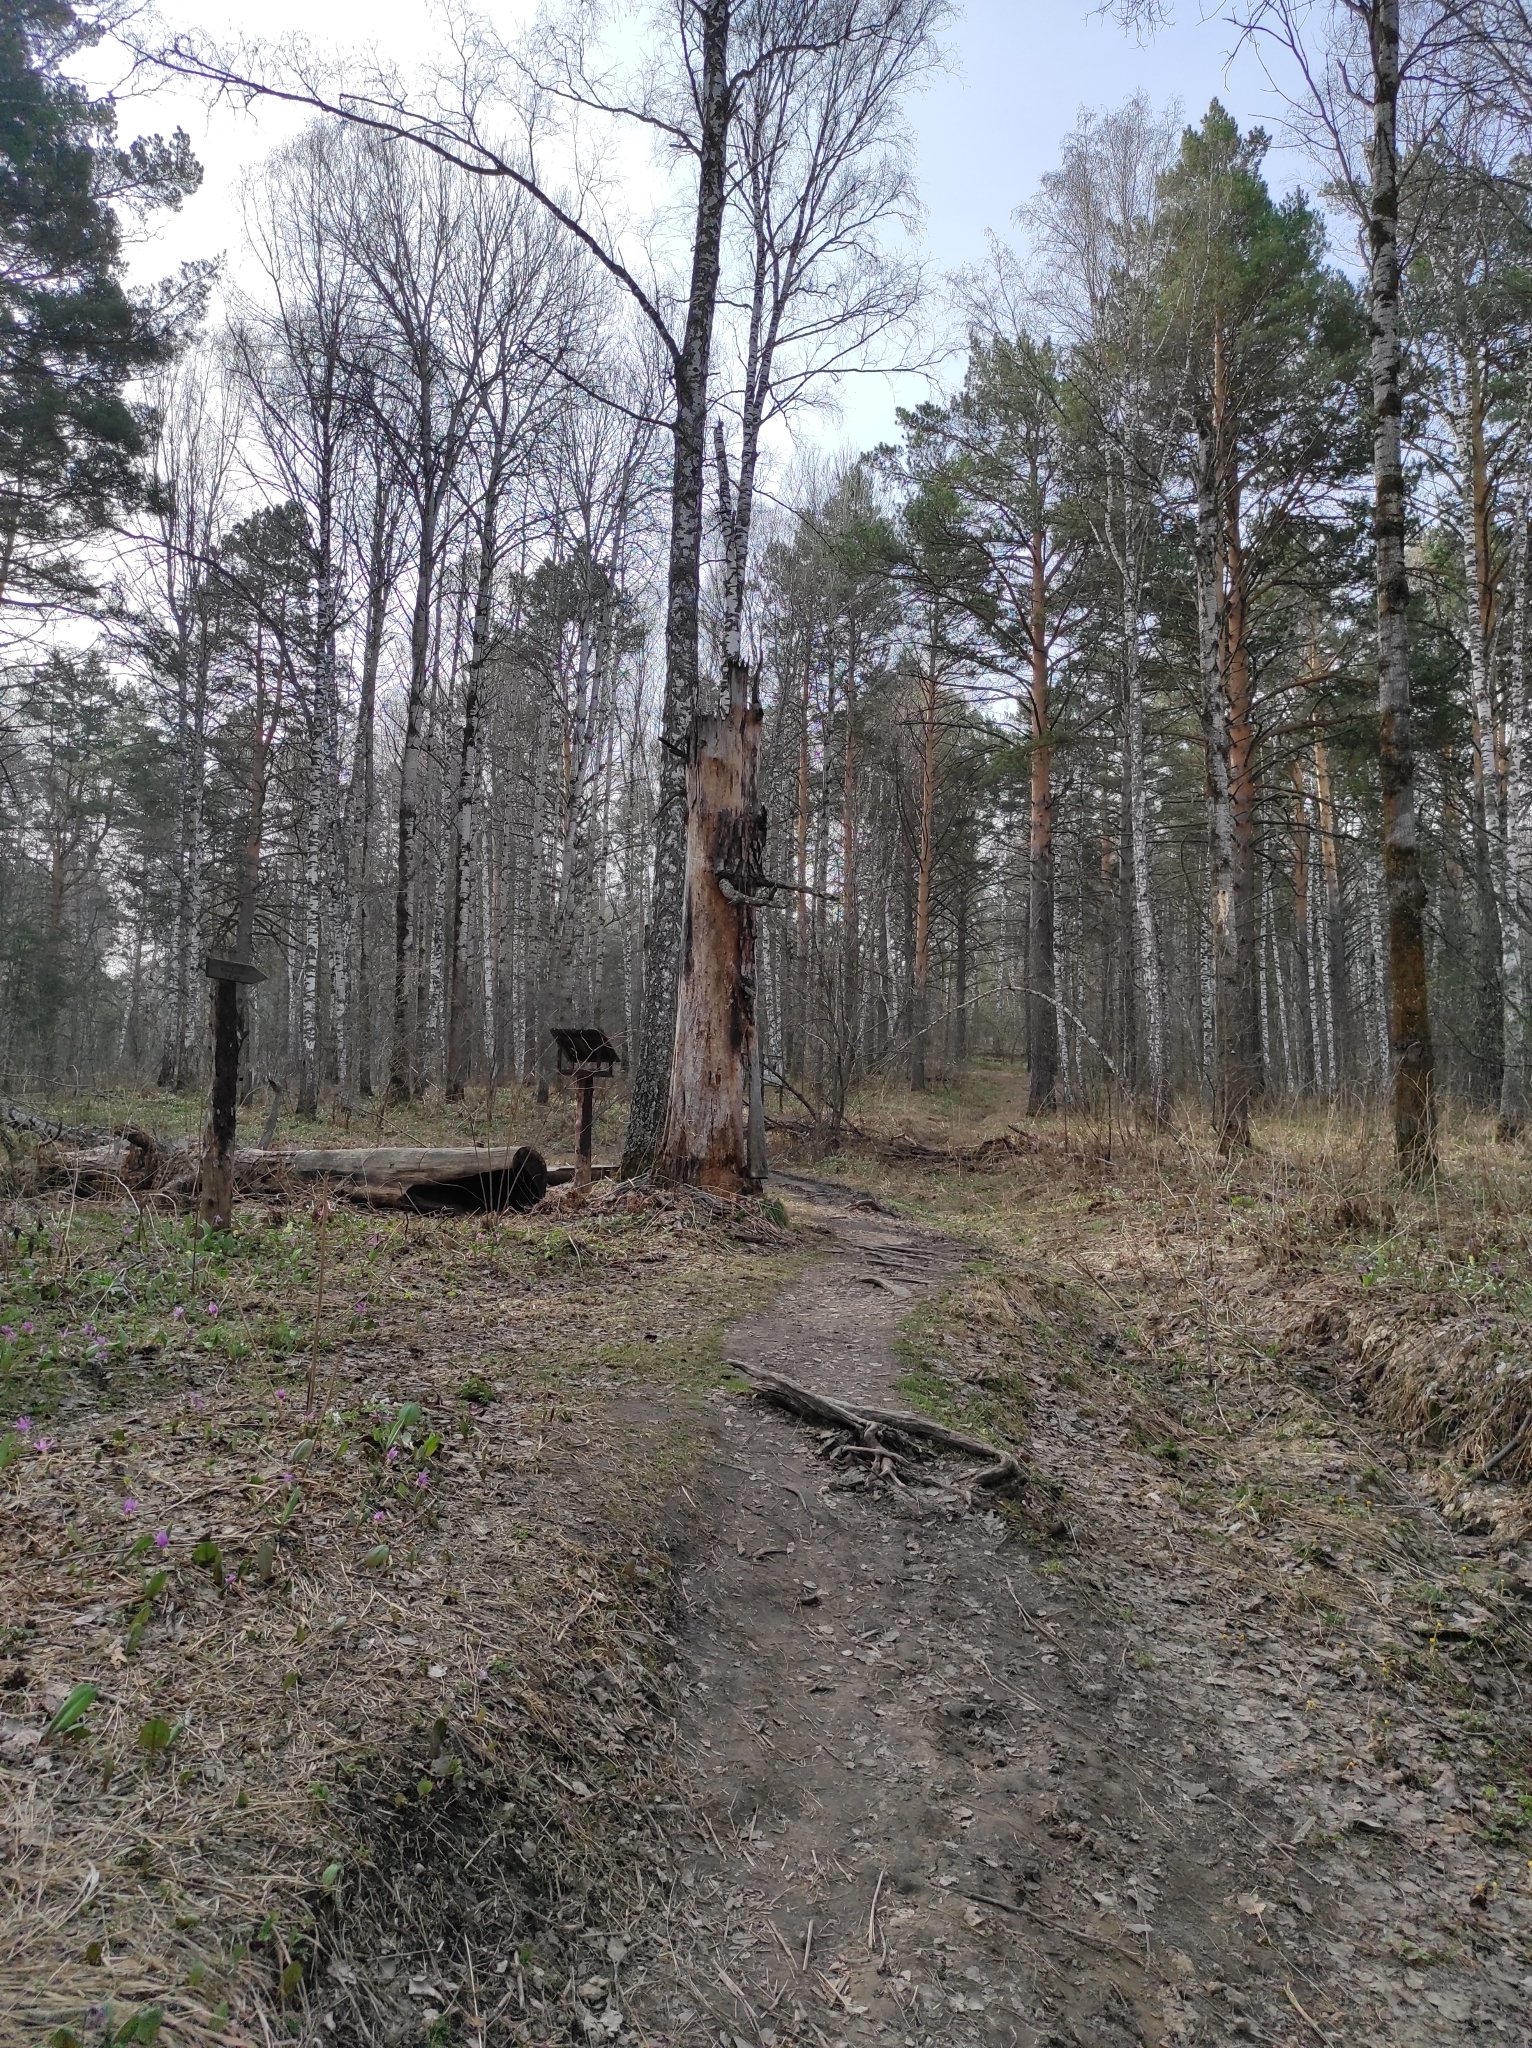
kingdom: Animalia
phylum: Chordata
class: Aves
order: Passeriformes
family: Fringillidae
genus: Fringilla
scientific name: Fringilla coelebs
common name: Common chaffinch
